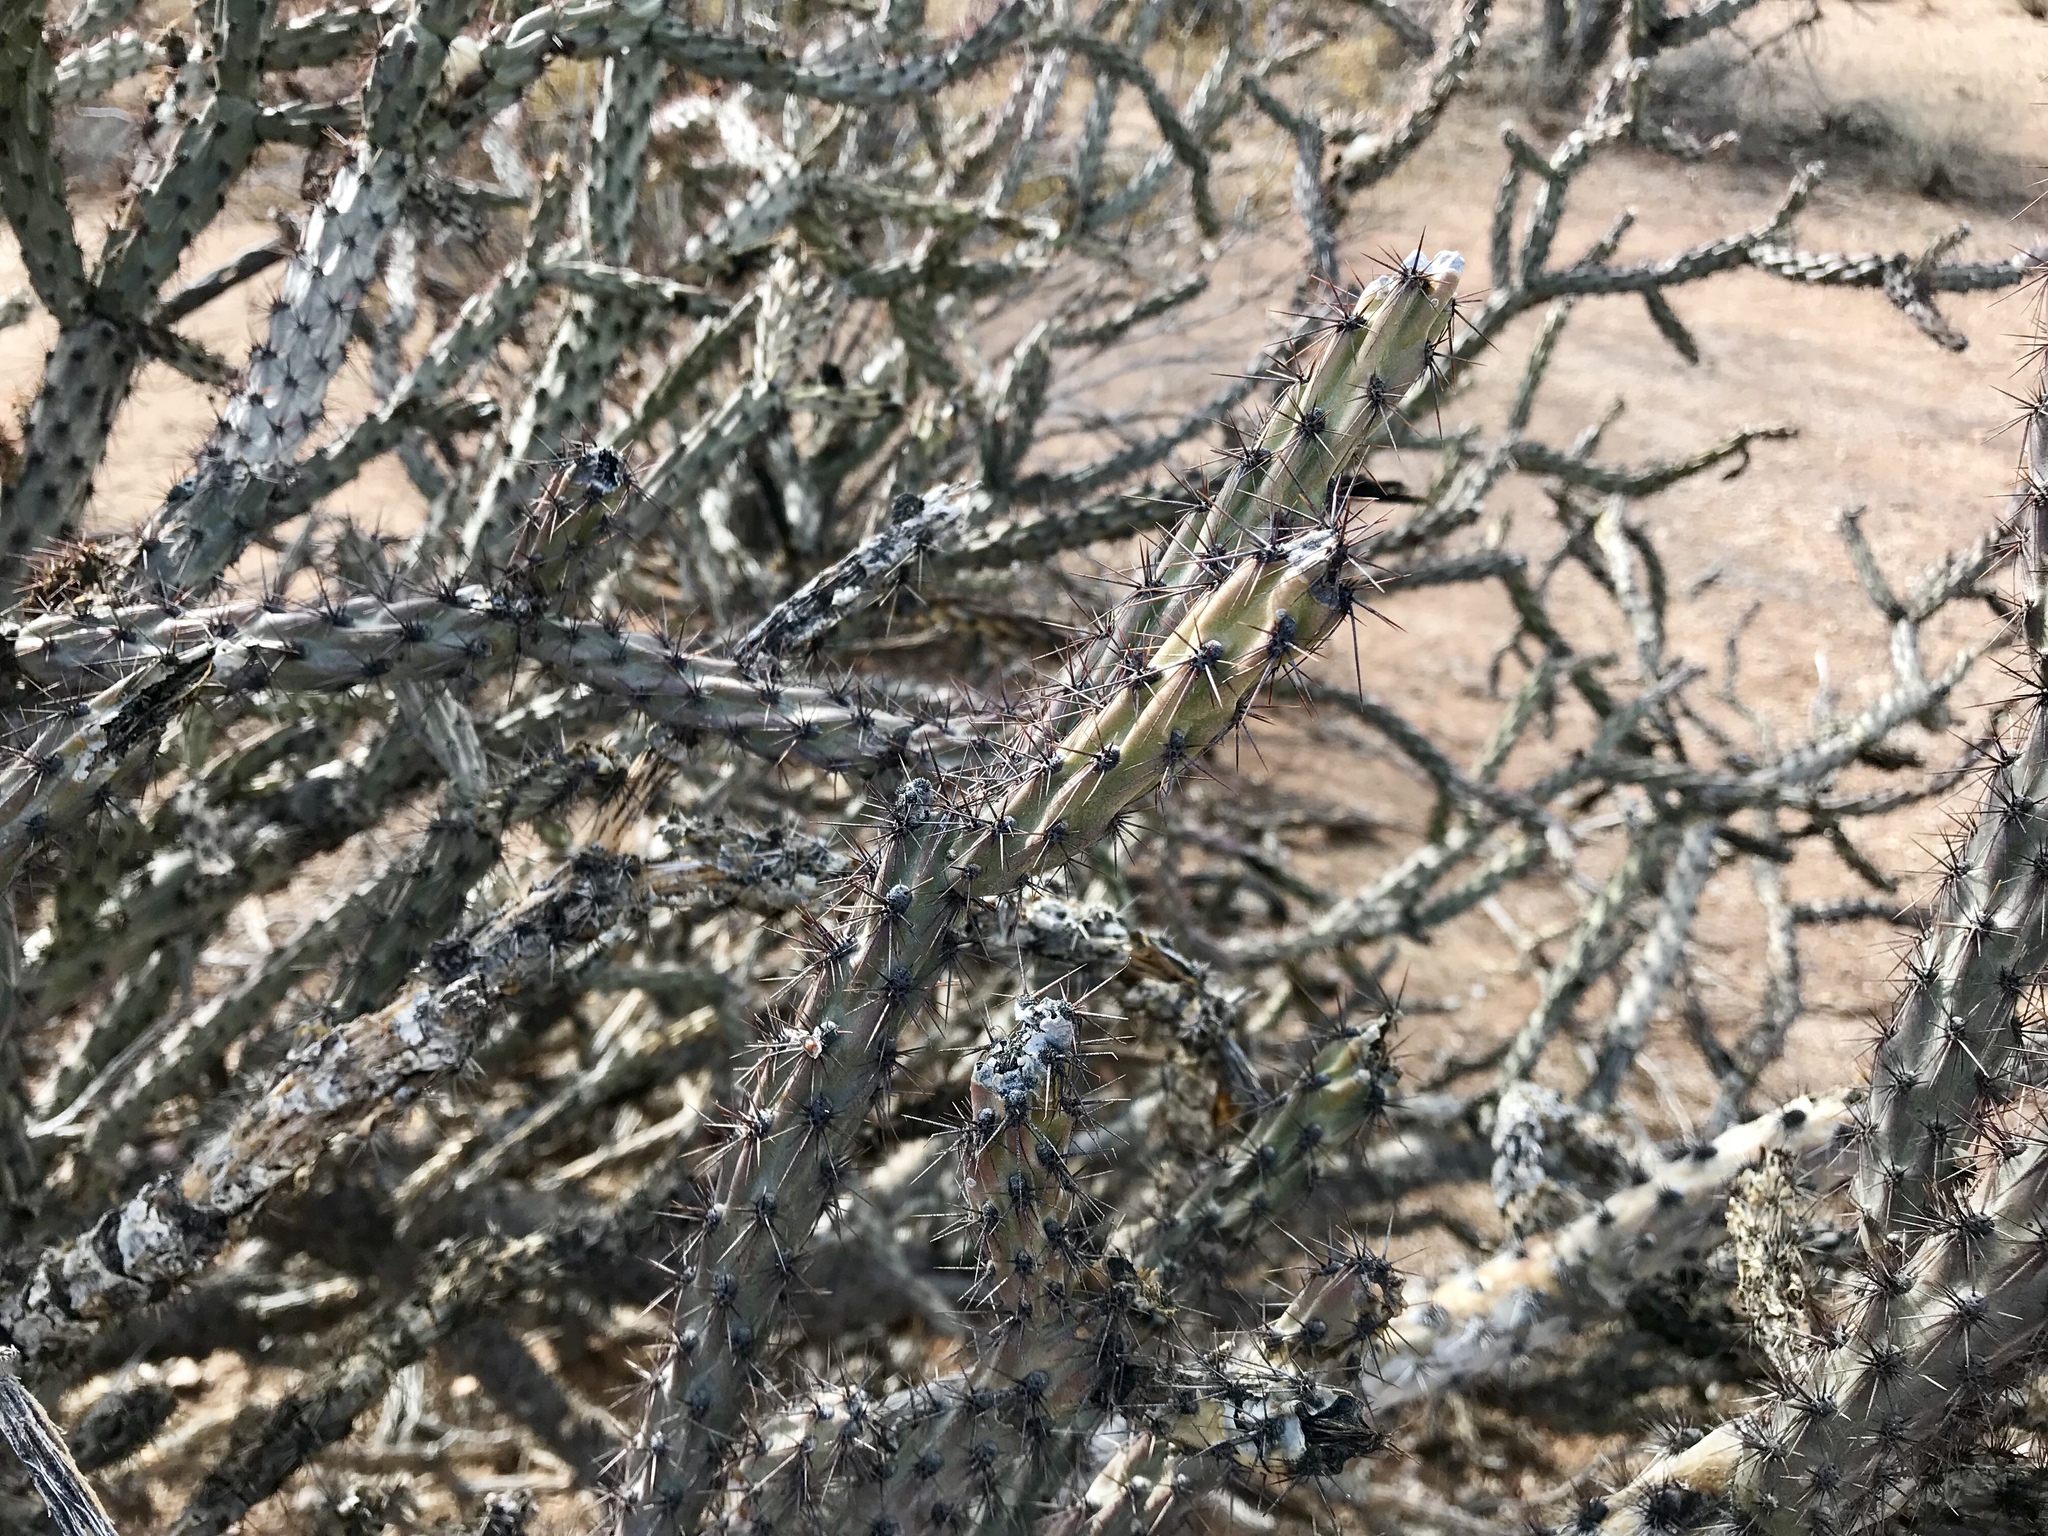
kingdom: Plantae
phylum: Tracheophyta
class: Magnoliopsida
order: Caryophyllales
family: Cactaceae
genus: Cylindropuntia
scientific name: Cylindropuntia acanthocarpa
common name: Buckhorn cholla
